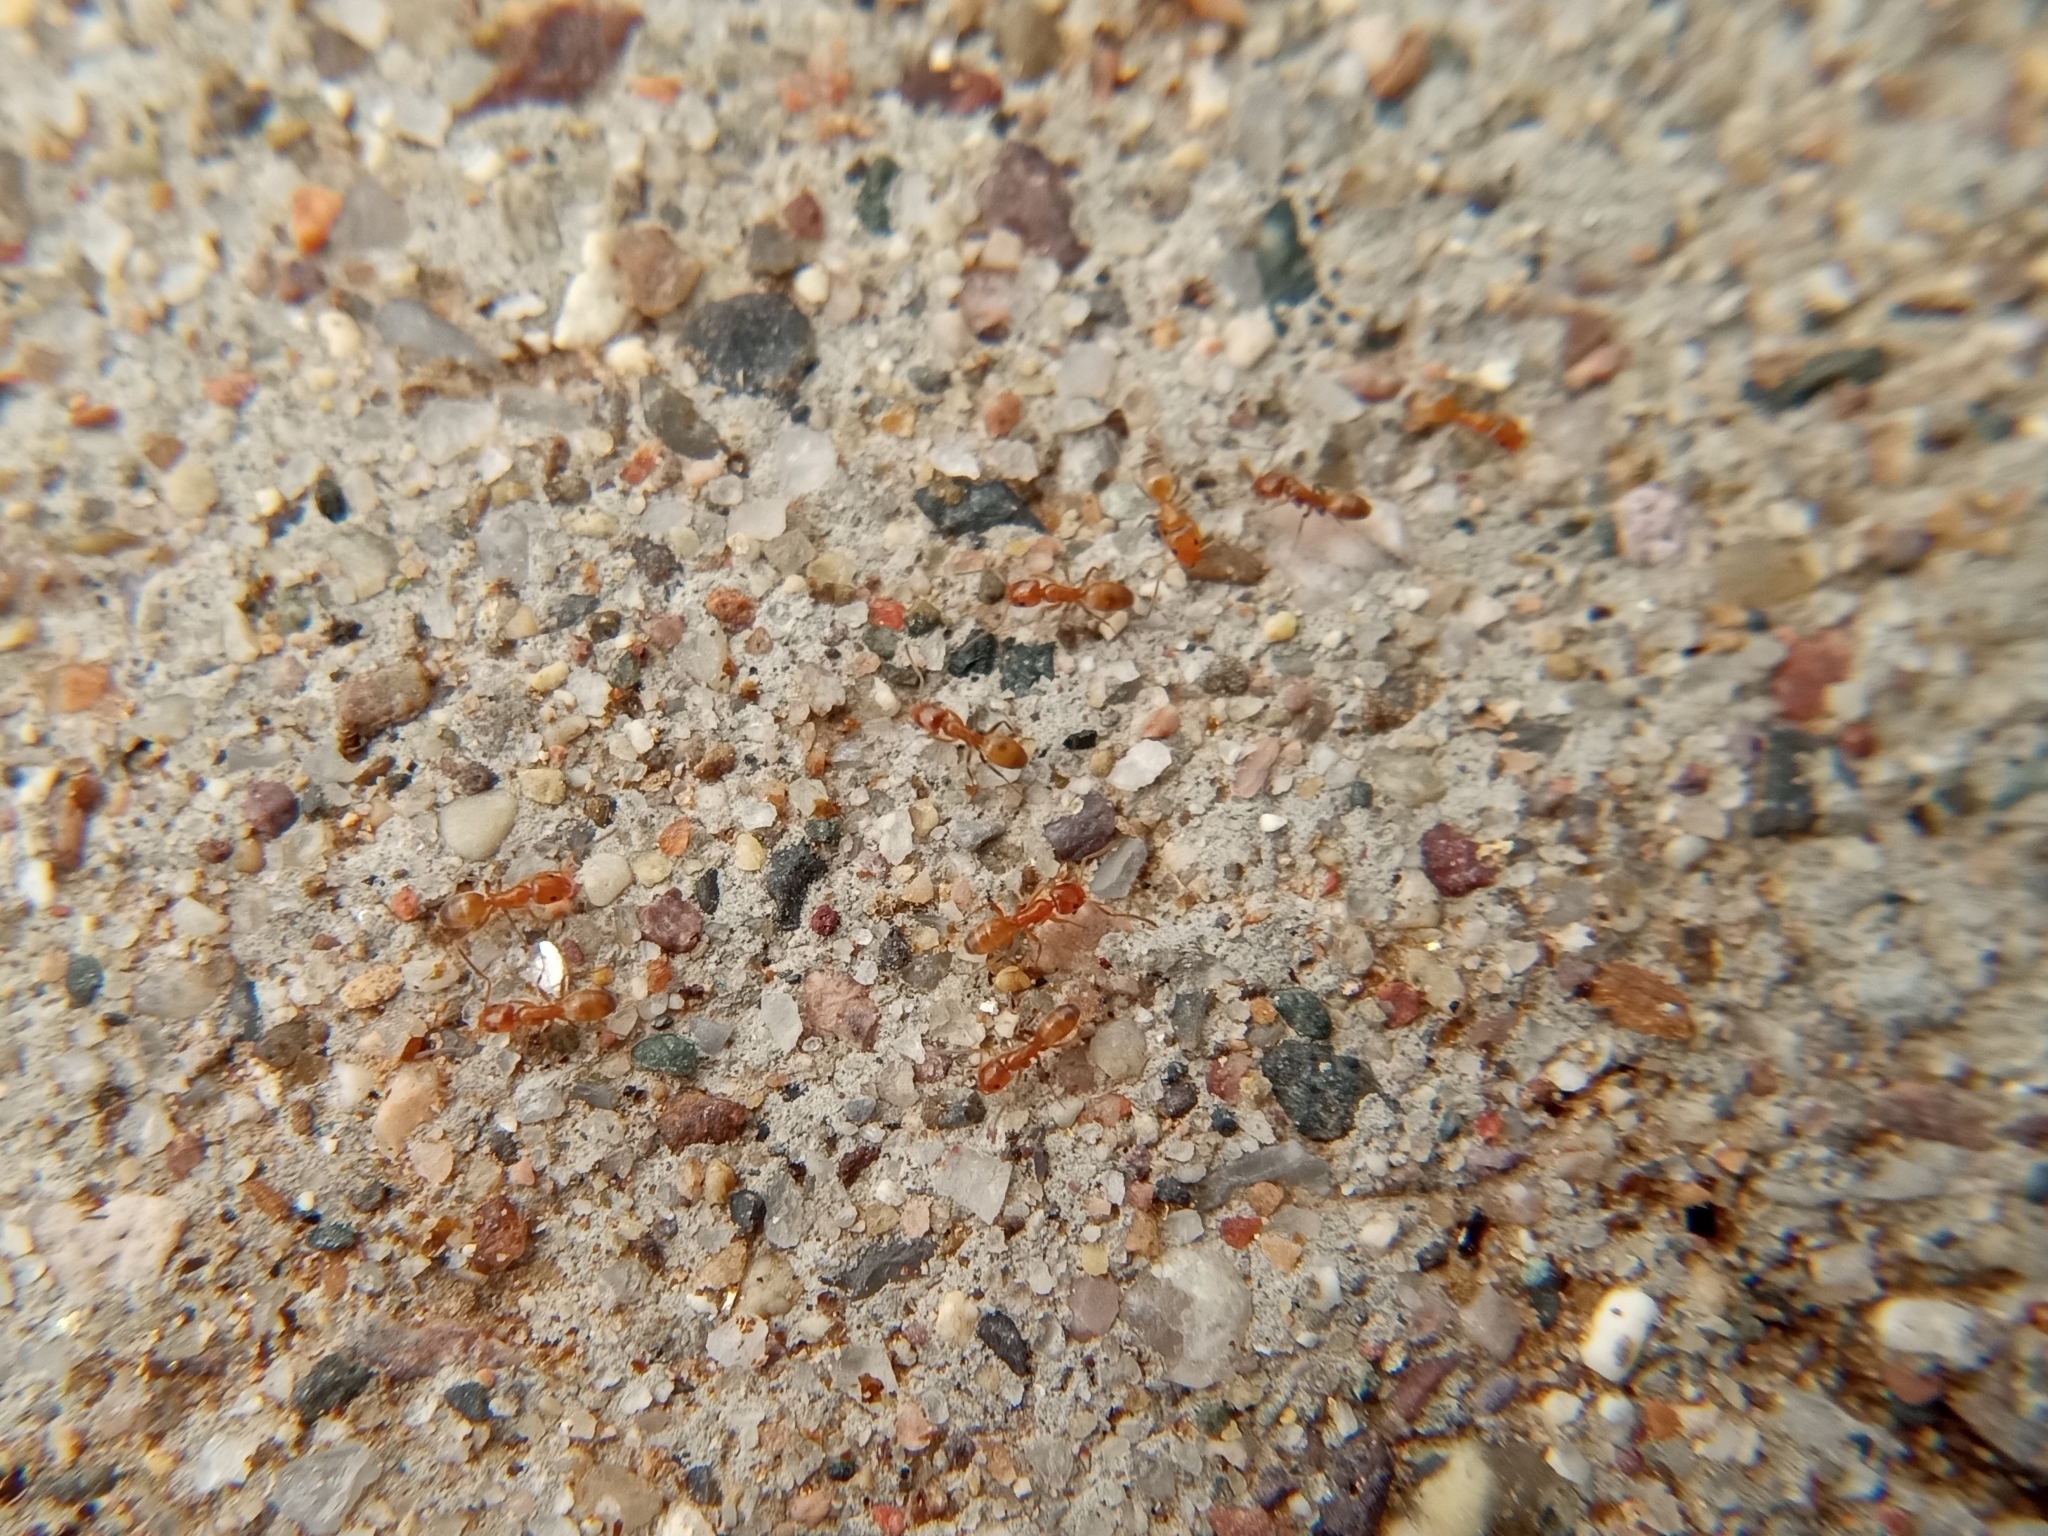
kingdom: Animalia
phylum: Arthropoda
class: Insecta
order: Hymenoptera
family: Formicidae
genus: Forelius
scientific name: Forelius
